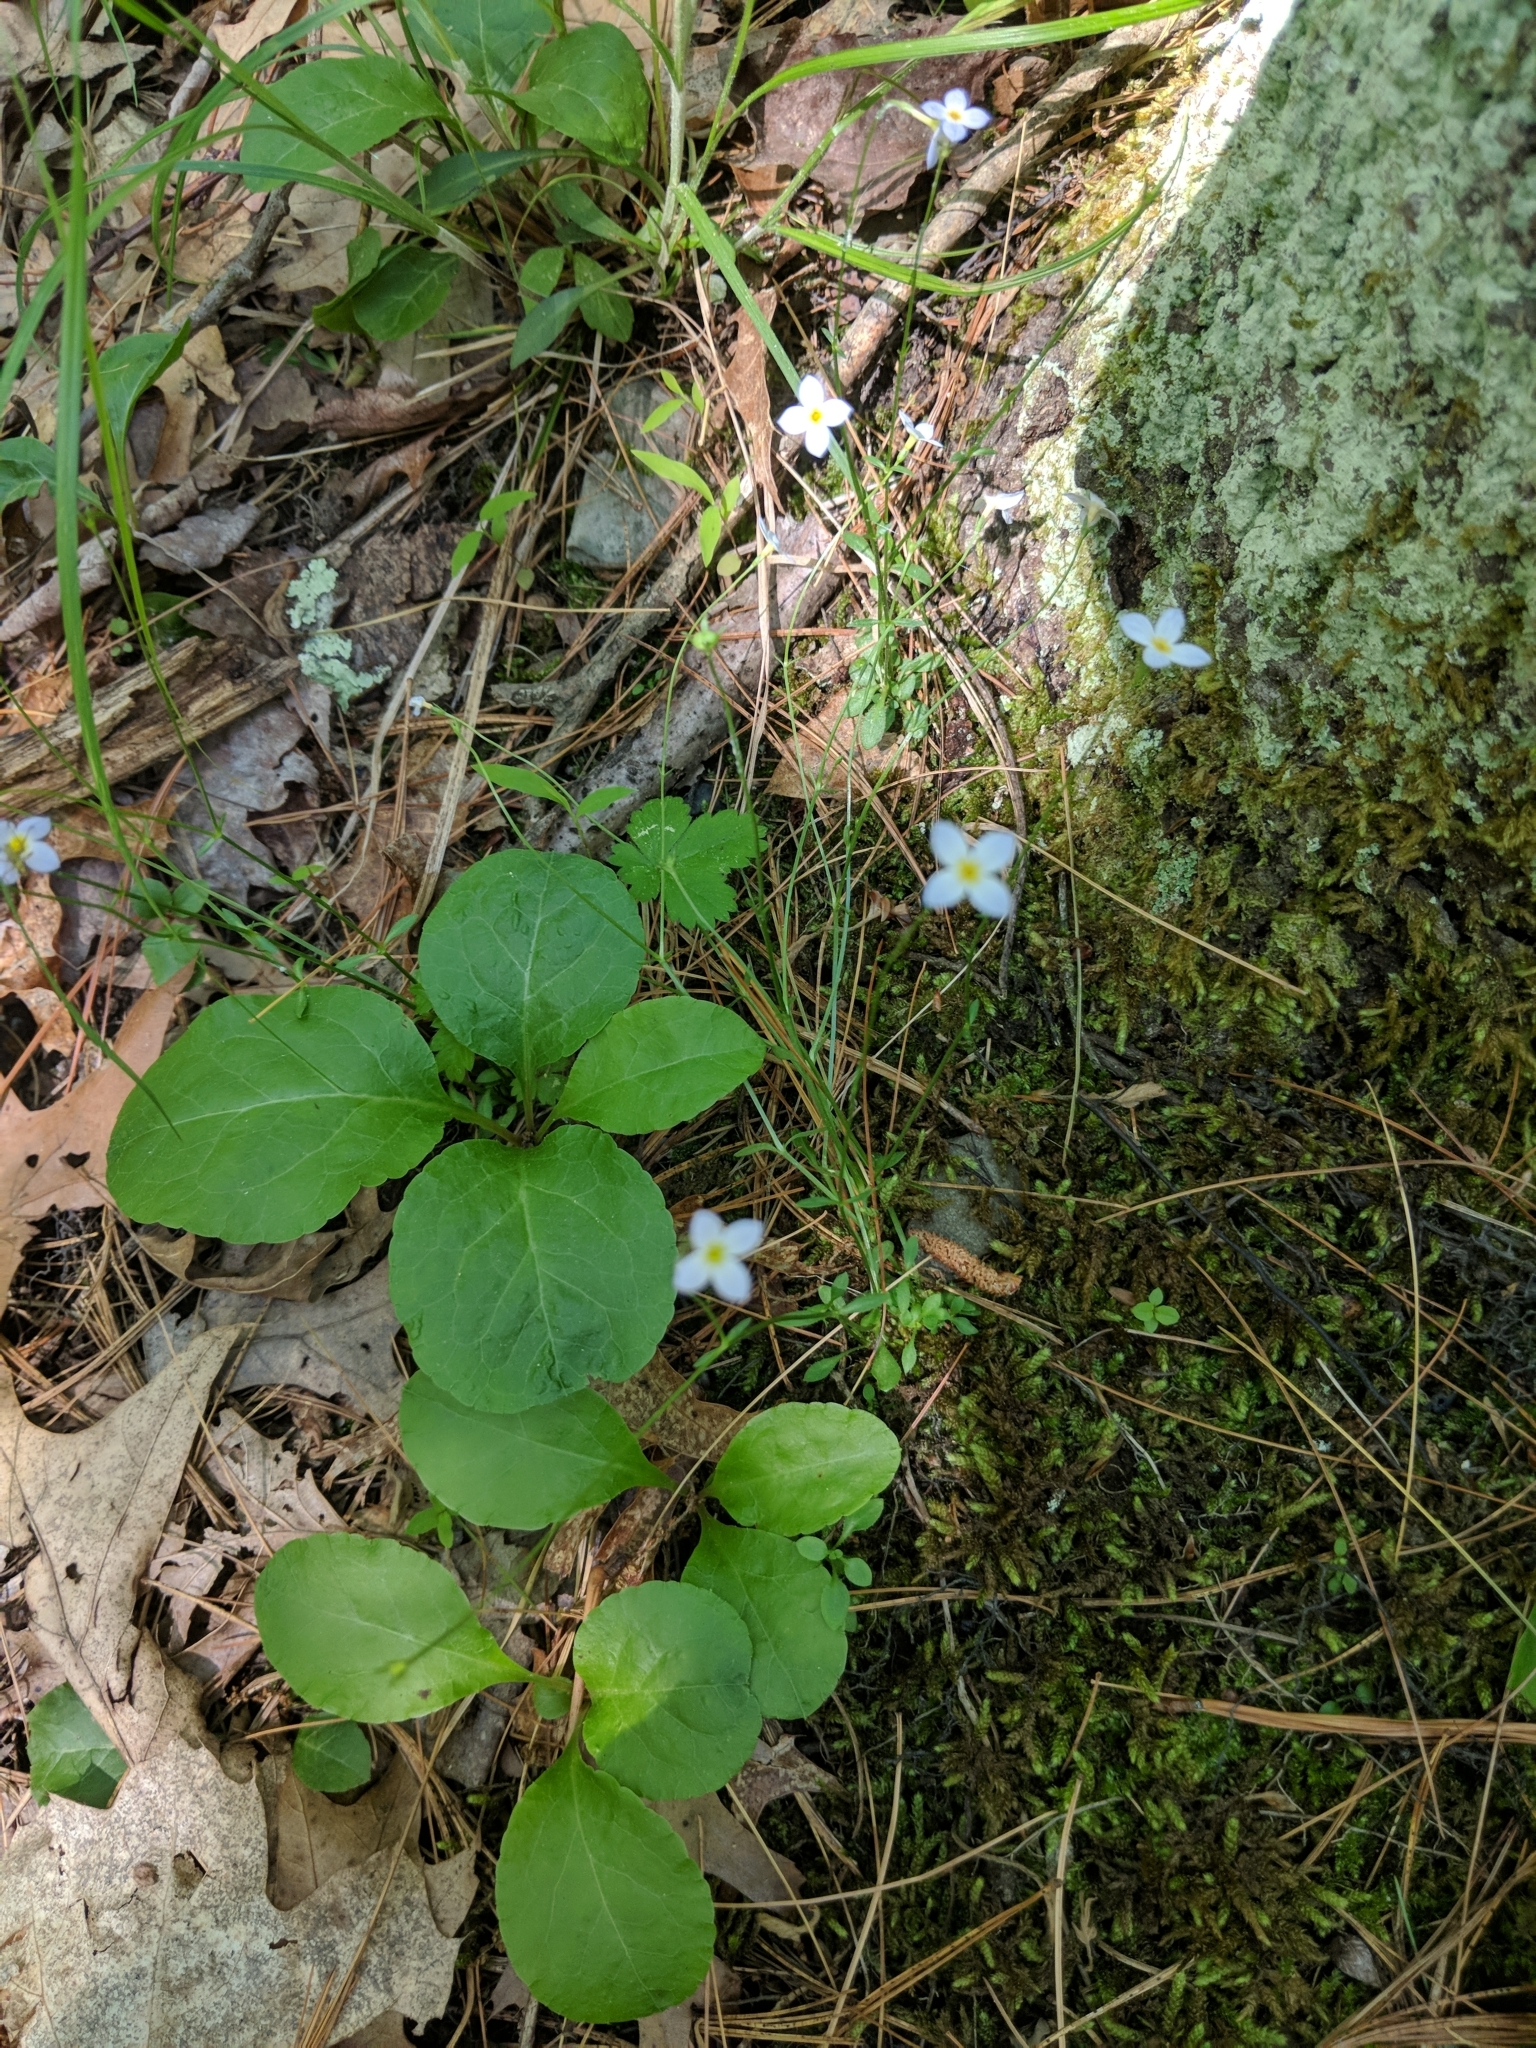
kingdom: Plantae
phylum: Tracheophyta
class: Magnoliopsida
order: Gentianales
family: Rubiaceae
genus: Houstonia
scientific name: Houstonia caerulea
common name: Bluets
